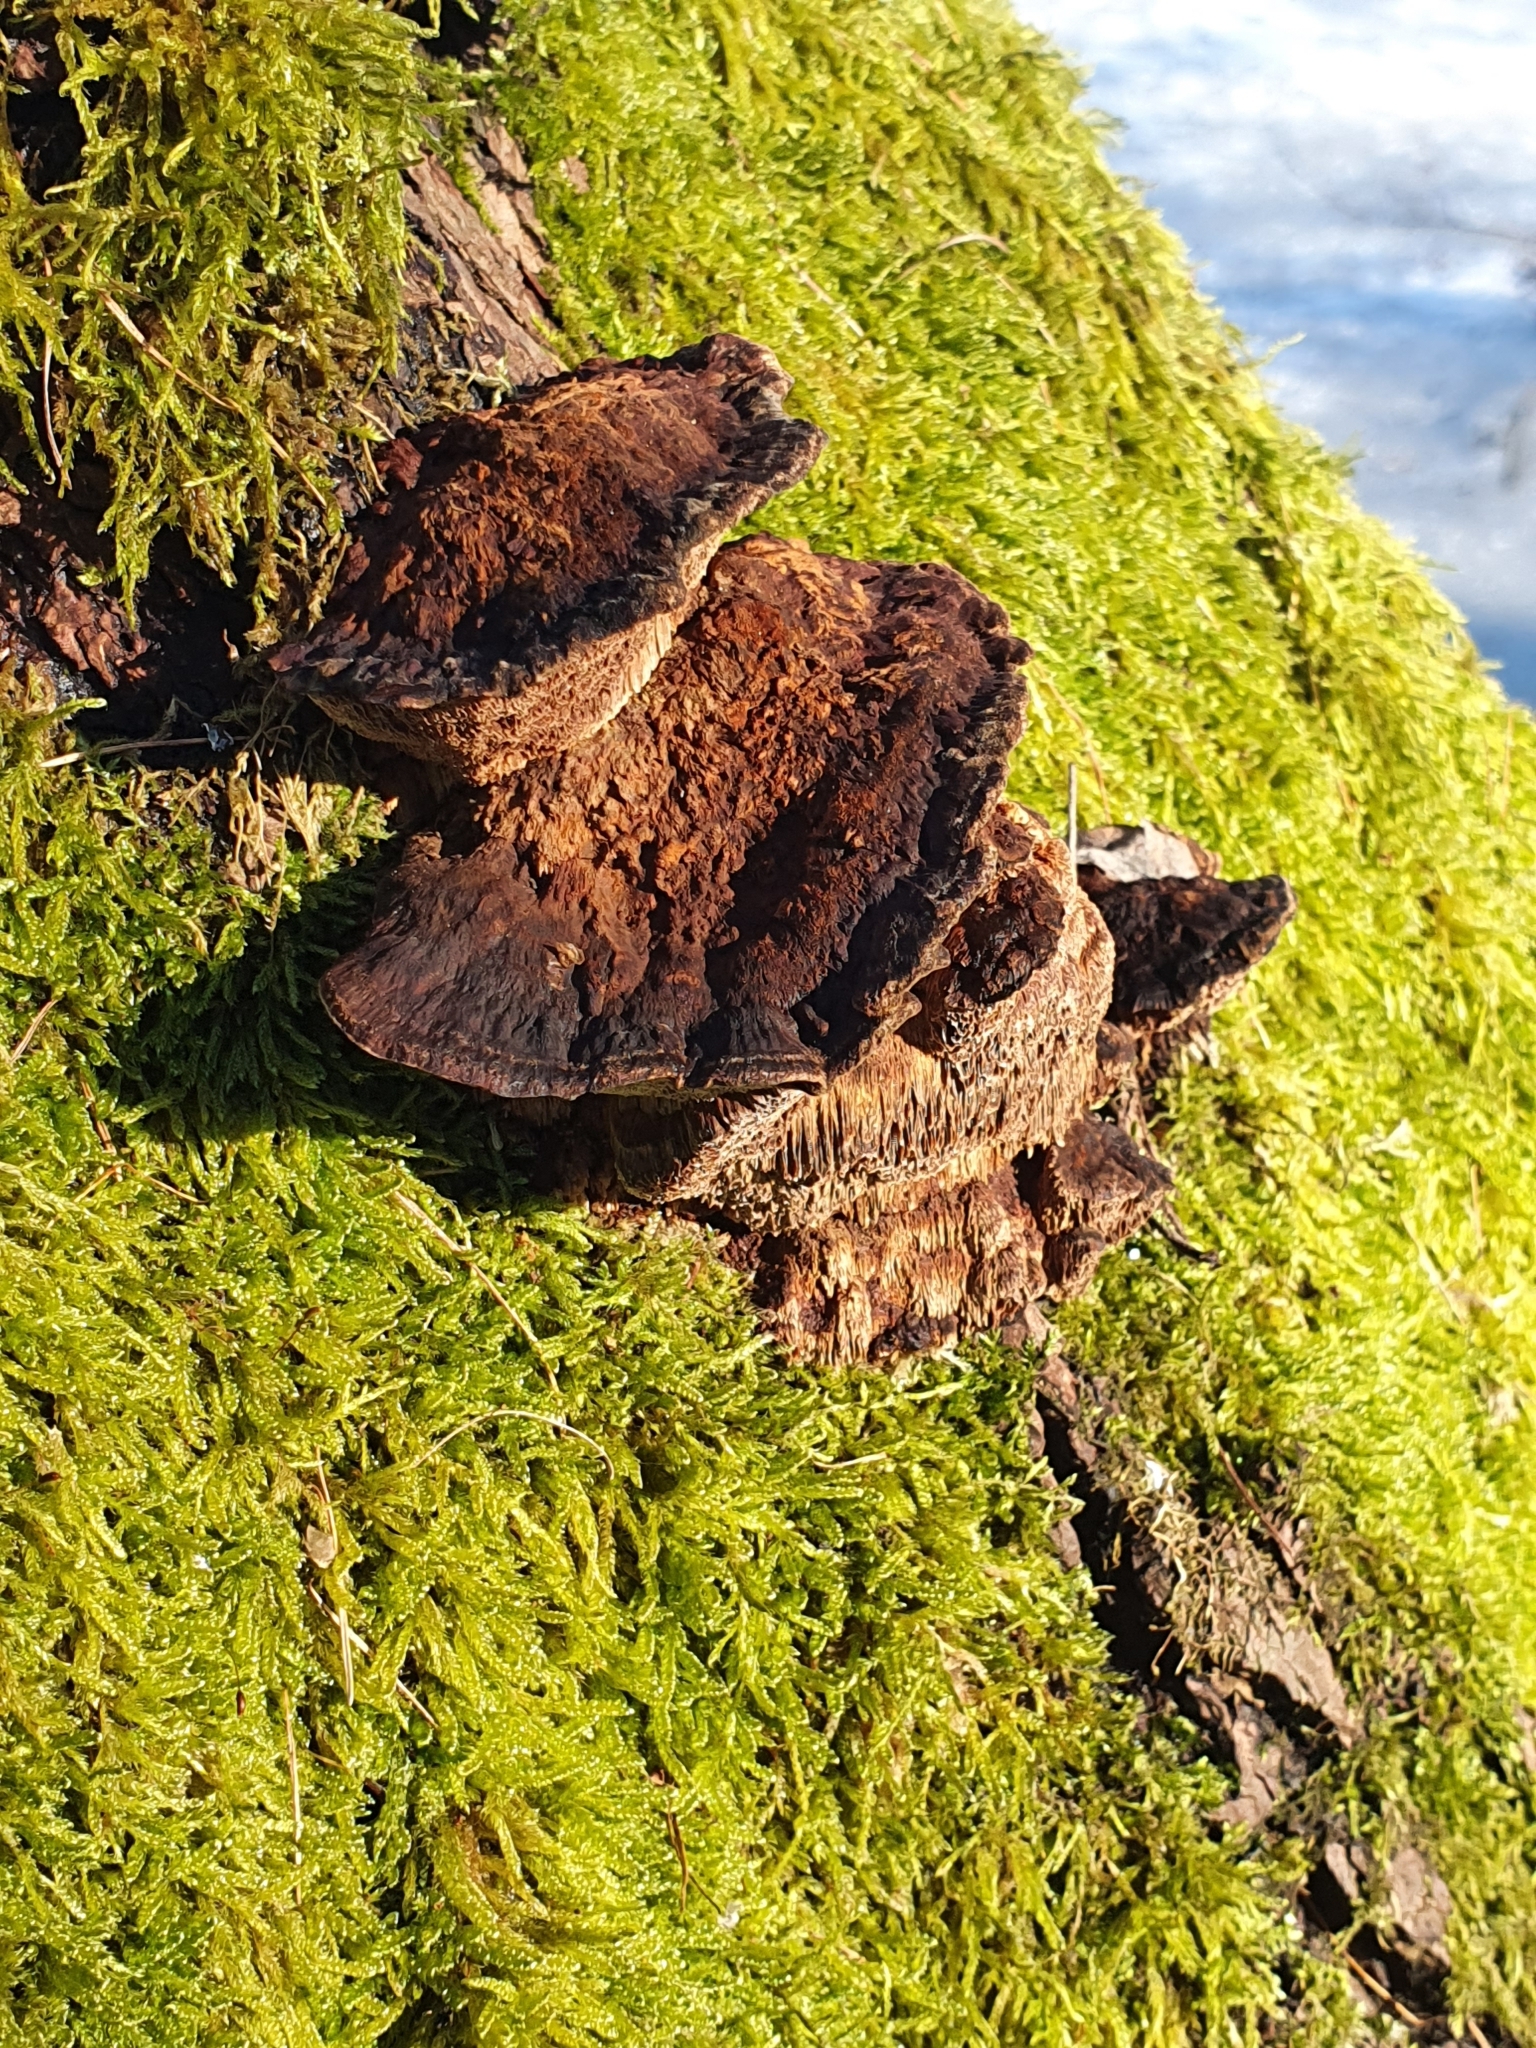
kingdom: Fungi
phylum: Basidiomycota
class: Agaricomycetes
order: Hymenochaetales
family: Hymenochaetaceae
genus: Xanthoporia
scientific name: Xanthoporia radiata
